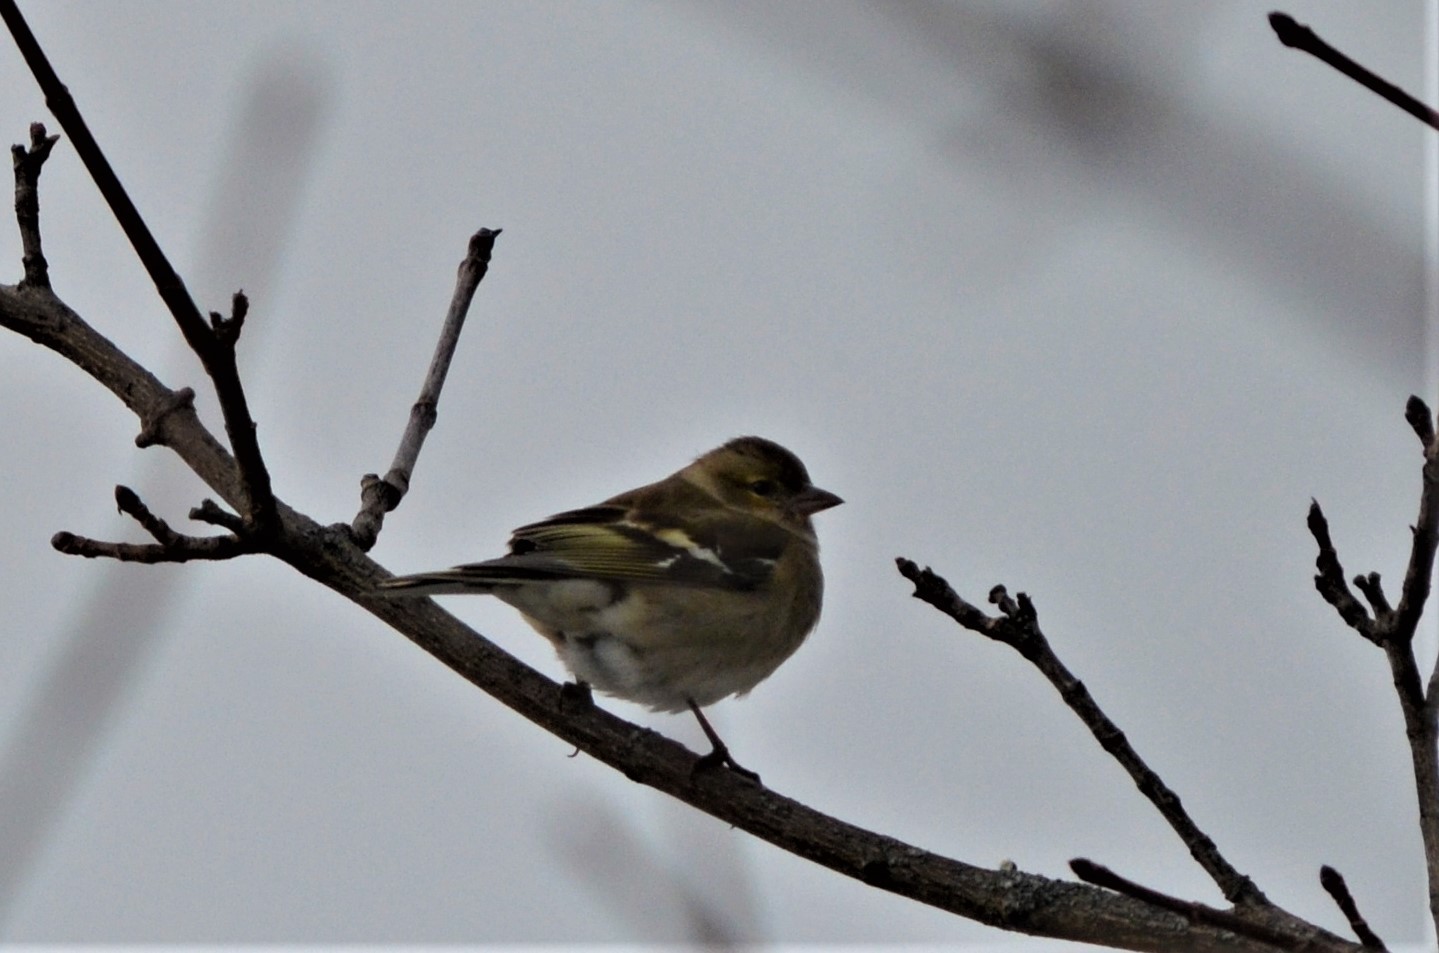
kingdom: Animalia
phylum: Chordata
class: Aves
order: Passeriformes
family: Fringillidae
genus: Fringilla
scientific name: Fringilla coelebs
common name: Common chaffinch
